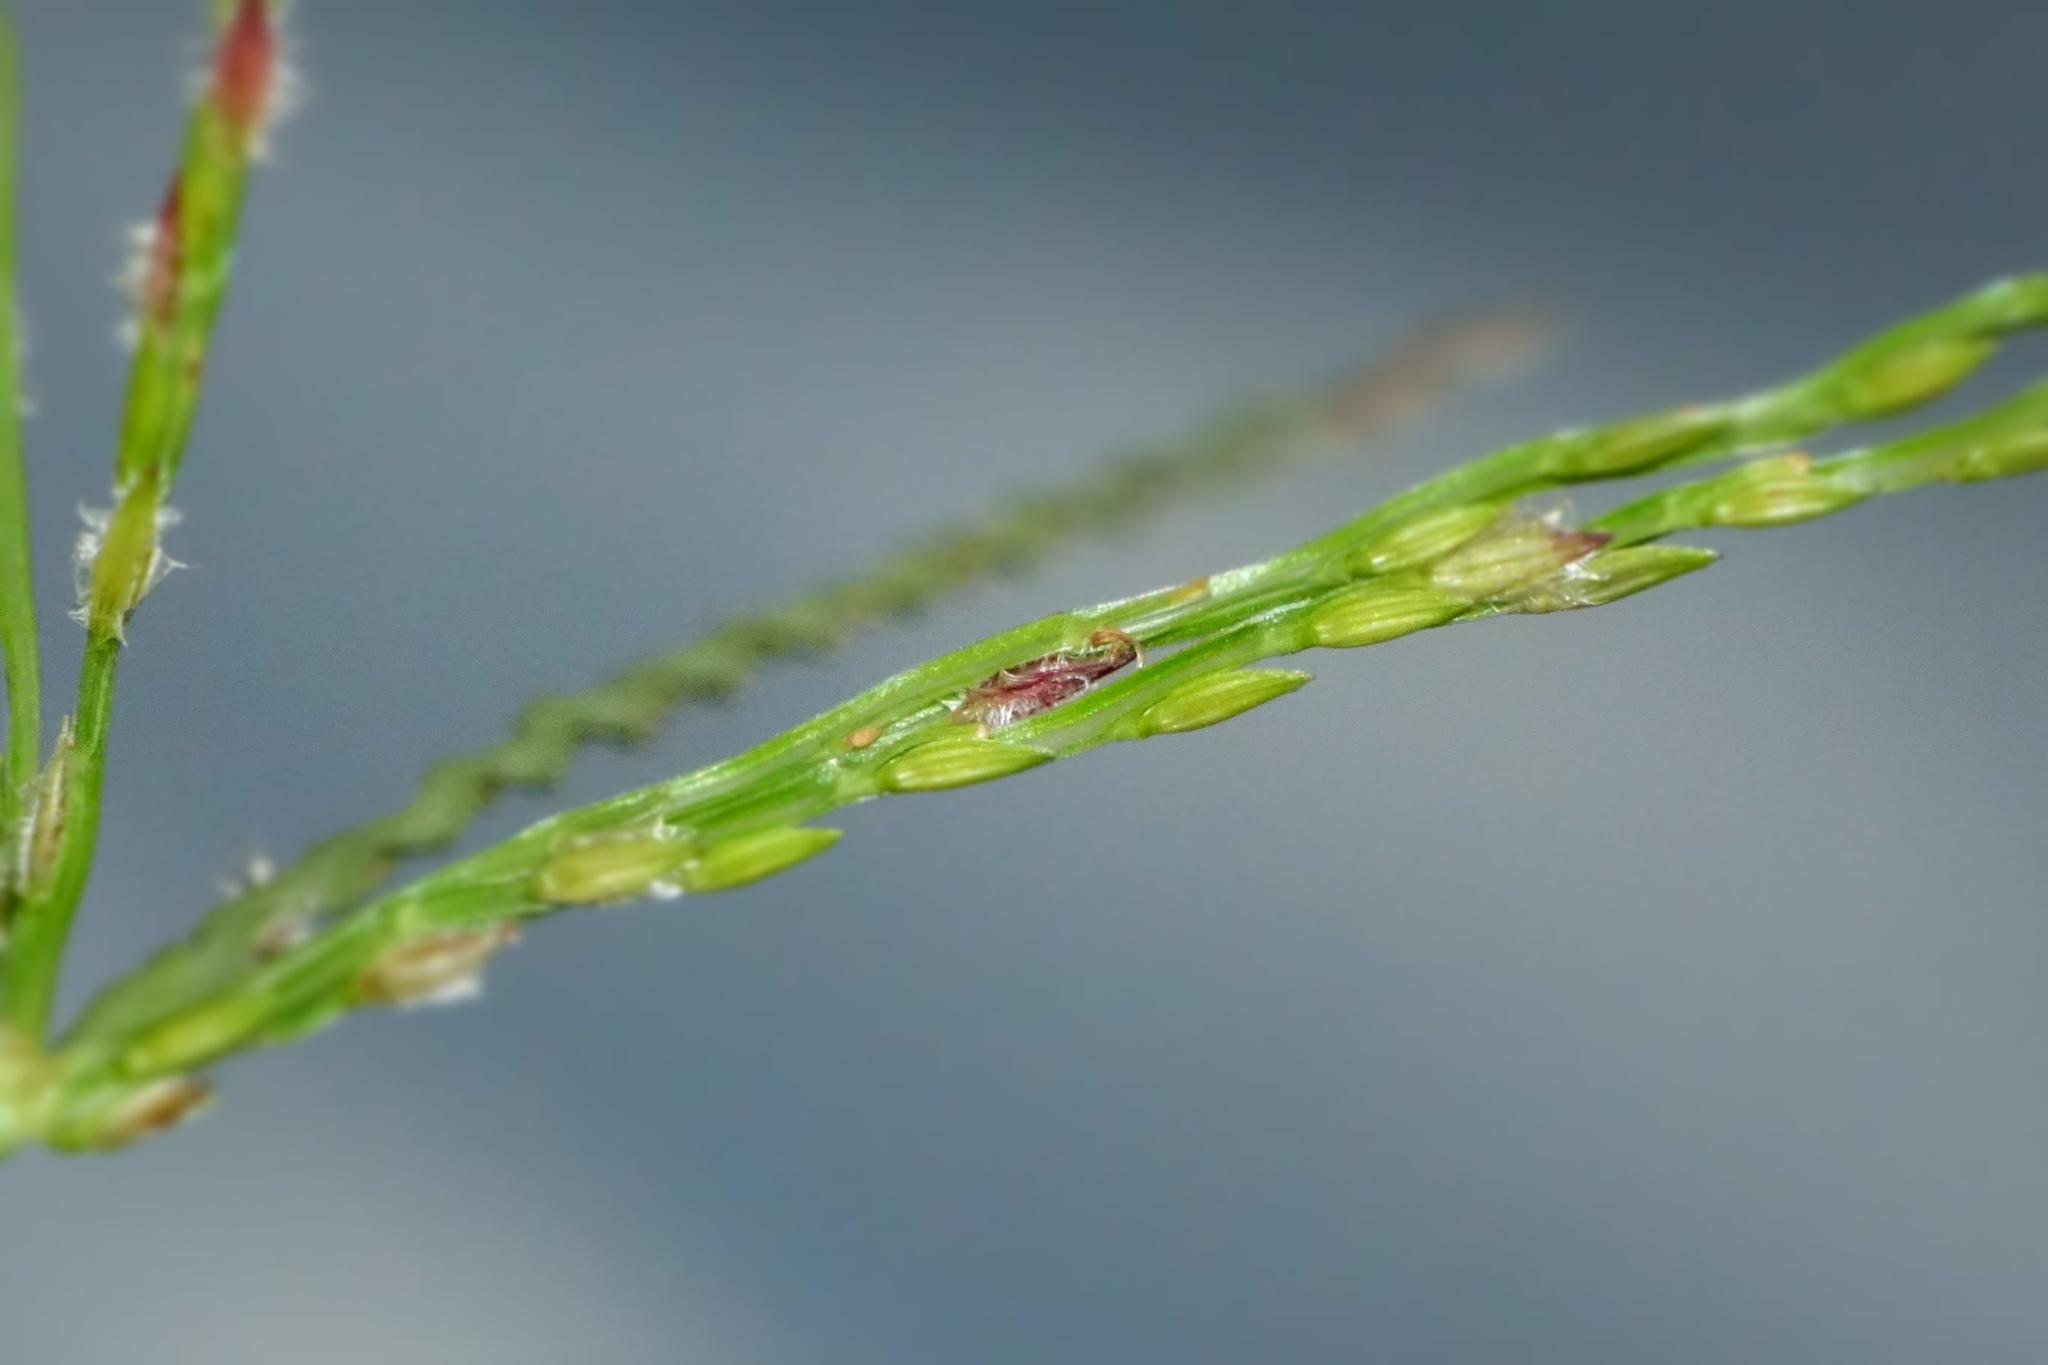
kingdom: Plantae
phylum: Tracheophyta
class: Liliopsida
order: Poales
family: Poaceae
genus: Digitaria
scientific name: Digitaria bicornis
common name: Asian crabgrass
